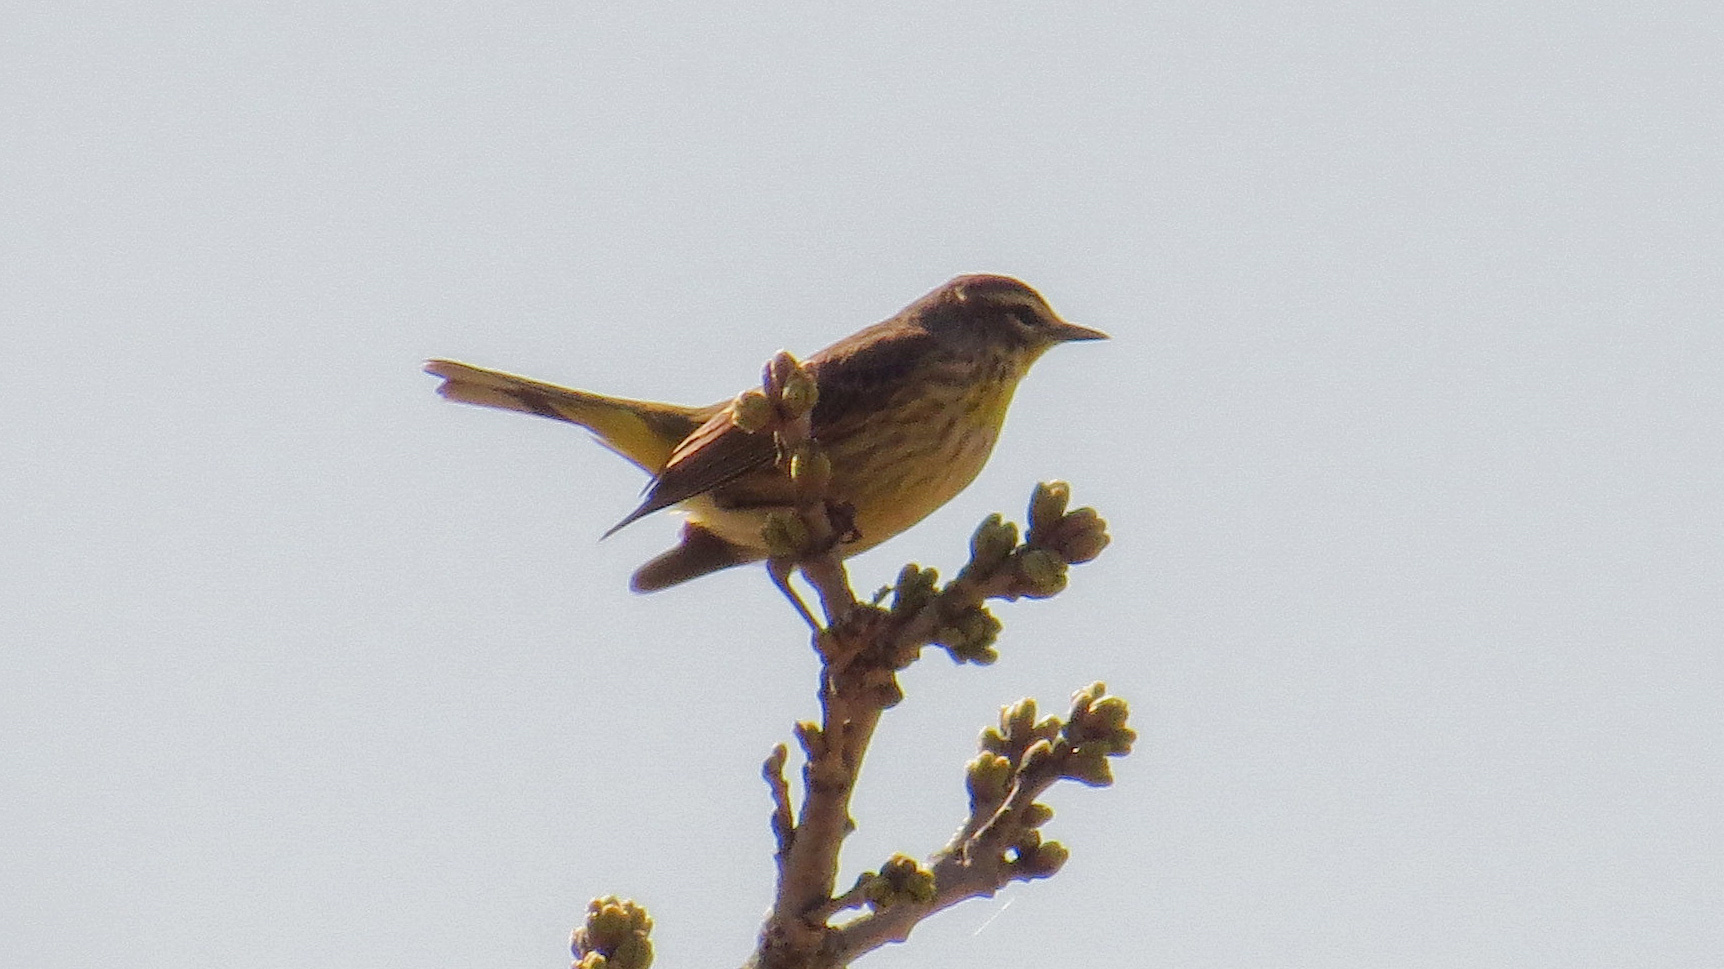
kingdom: Animalia
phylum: Chordata
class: Aves
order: Passeriformes
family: Parulidae
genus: Setophaga
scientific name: Setophaga palmarum
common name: Palm warbler
